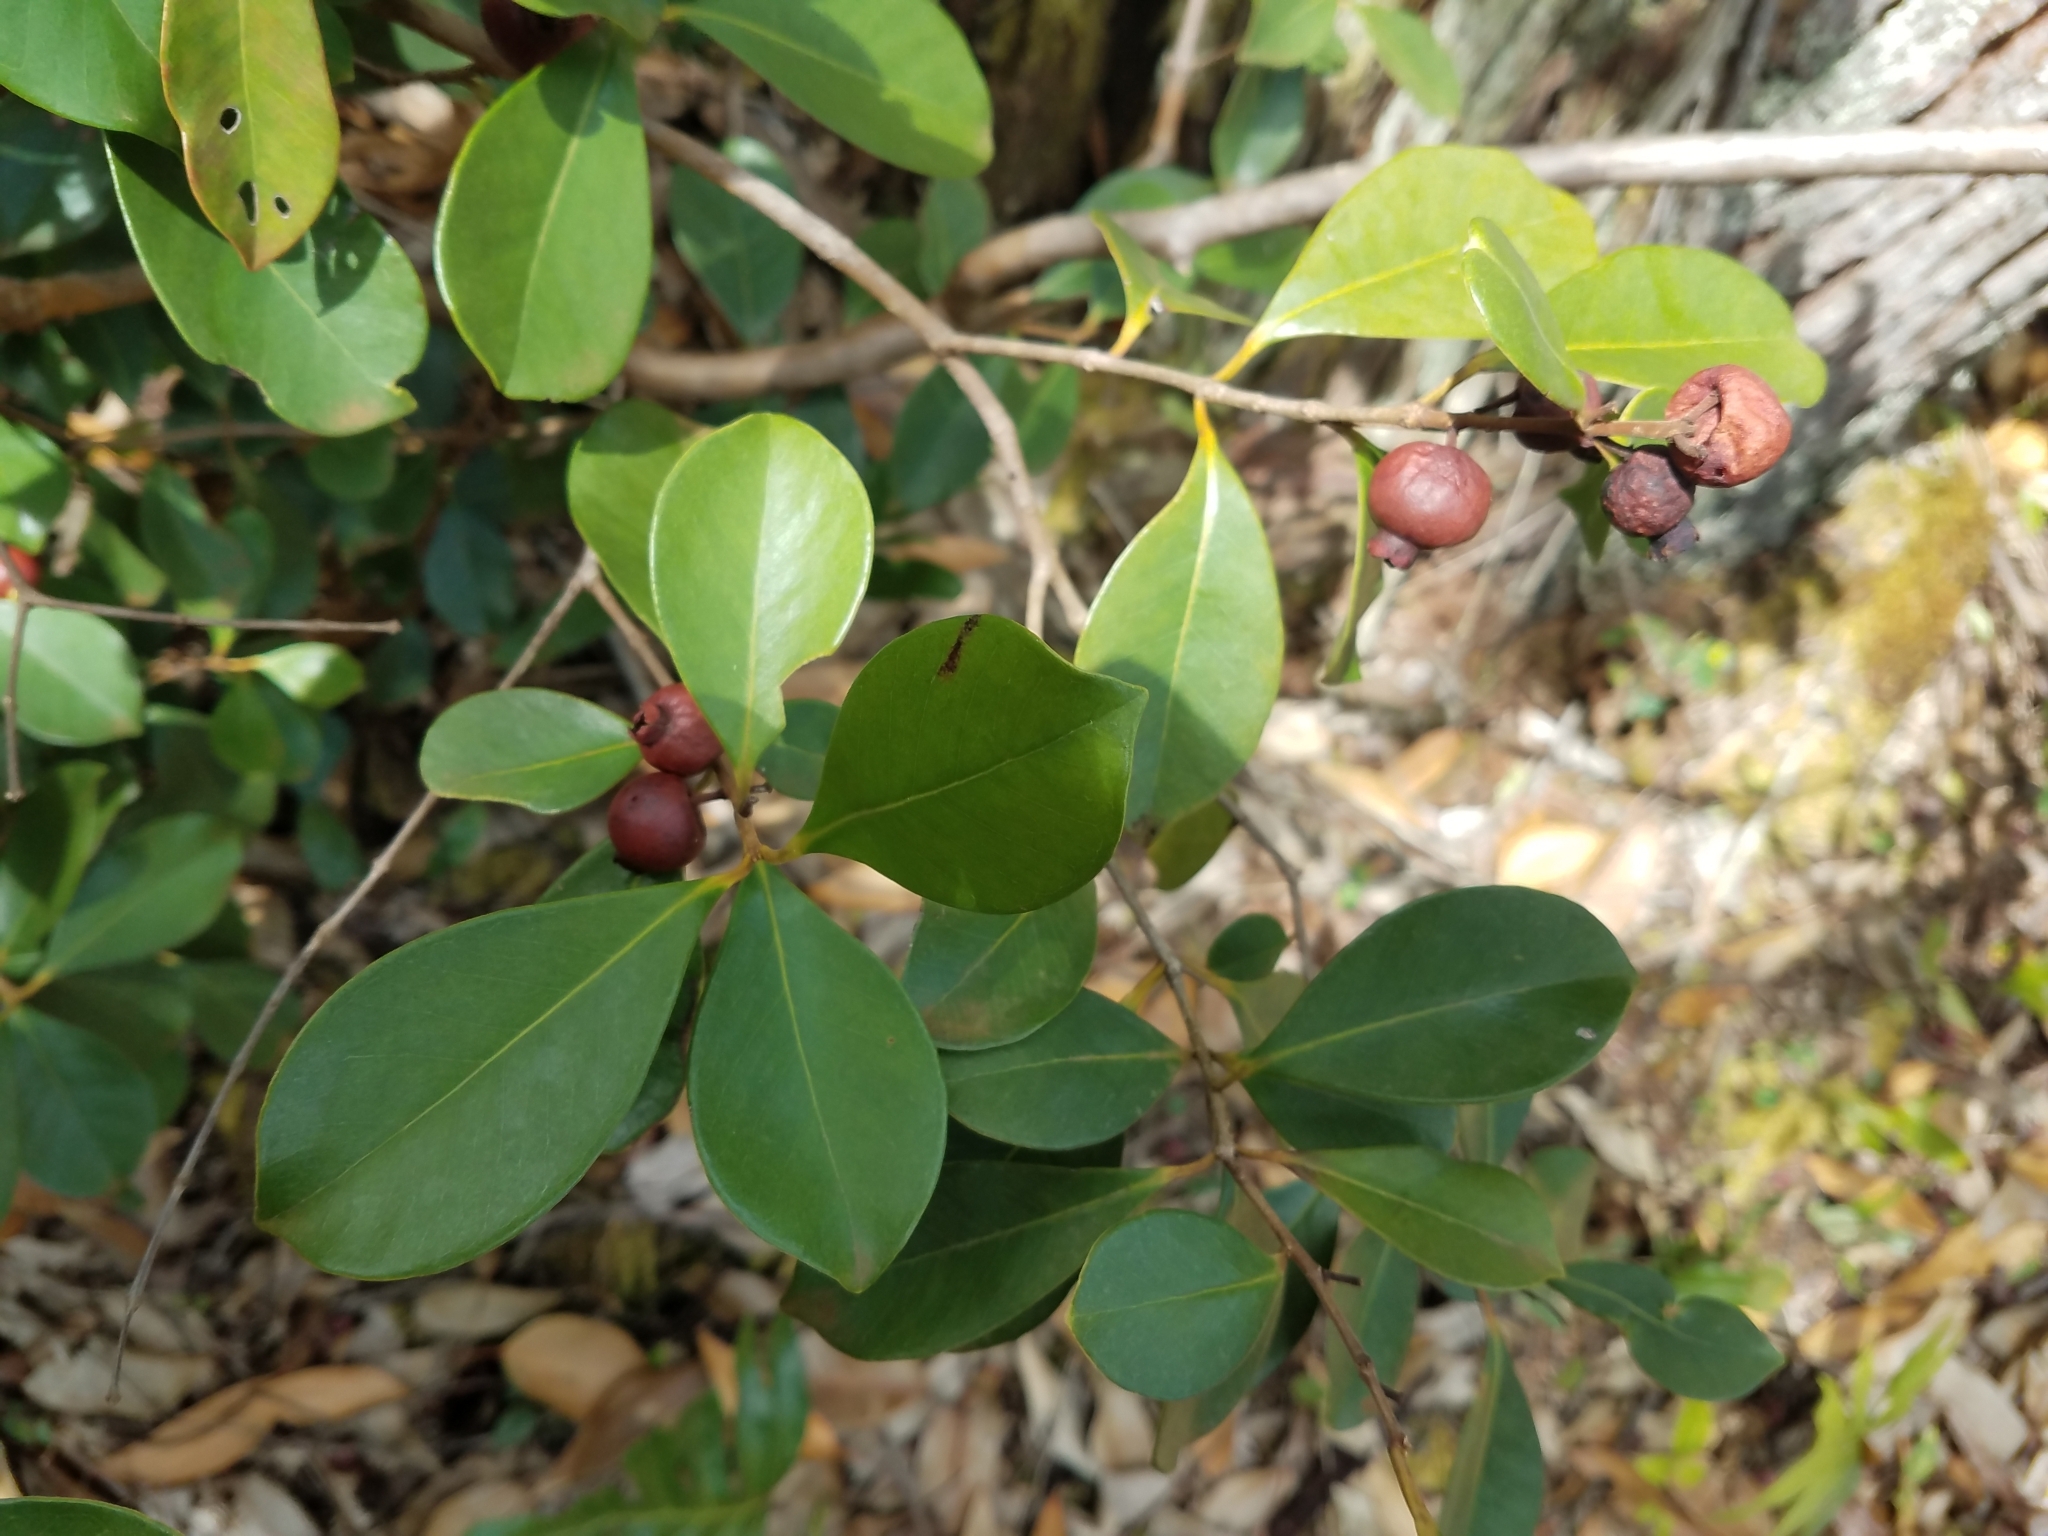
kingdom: Plantae
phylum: Tracheophyta
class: Magnoliopsida
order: Myrtales
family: Myrtaceae
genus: Psidium
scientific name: Psidium cattleianum
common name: Strawberry guava
